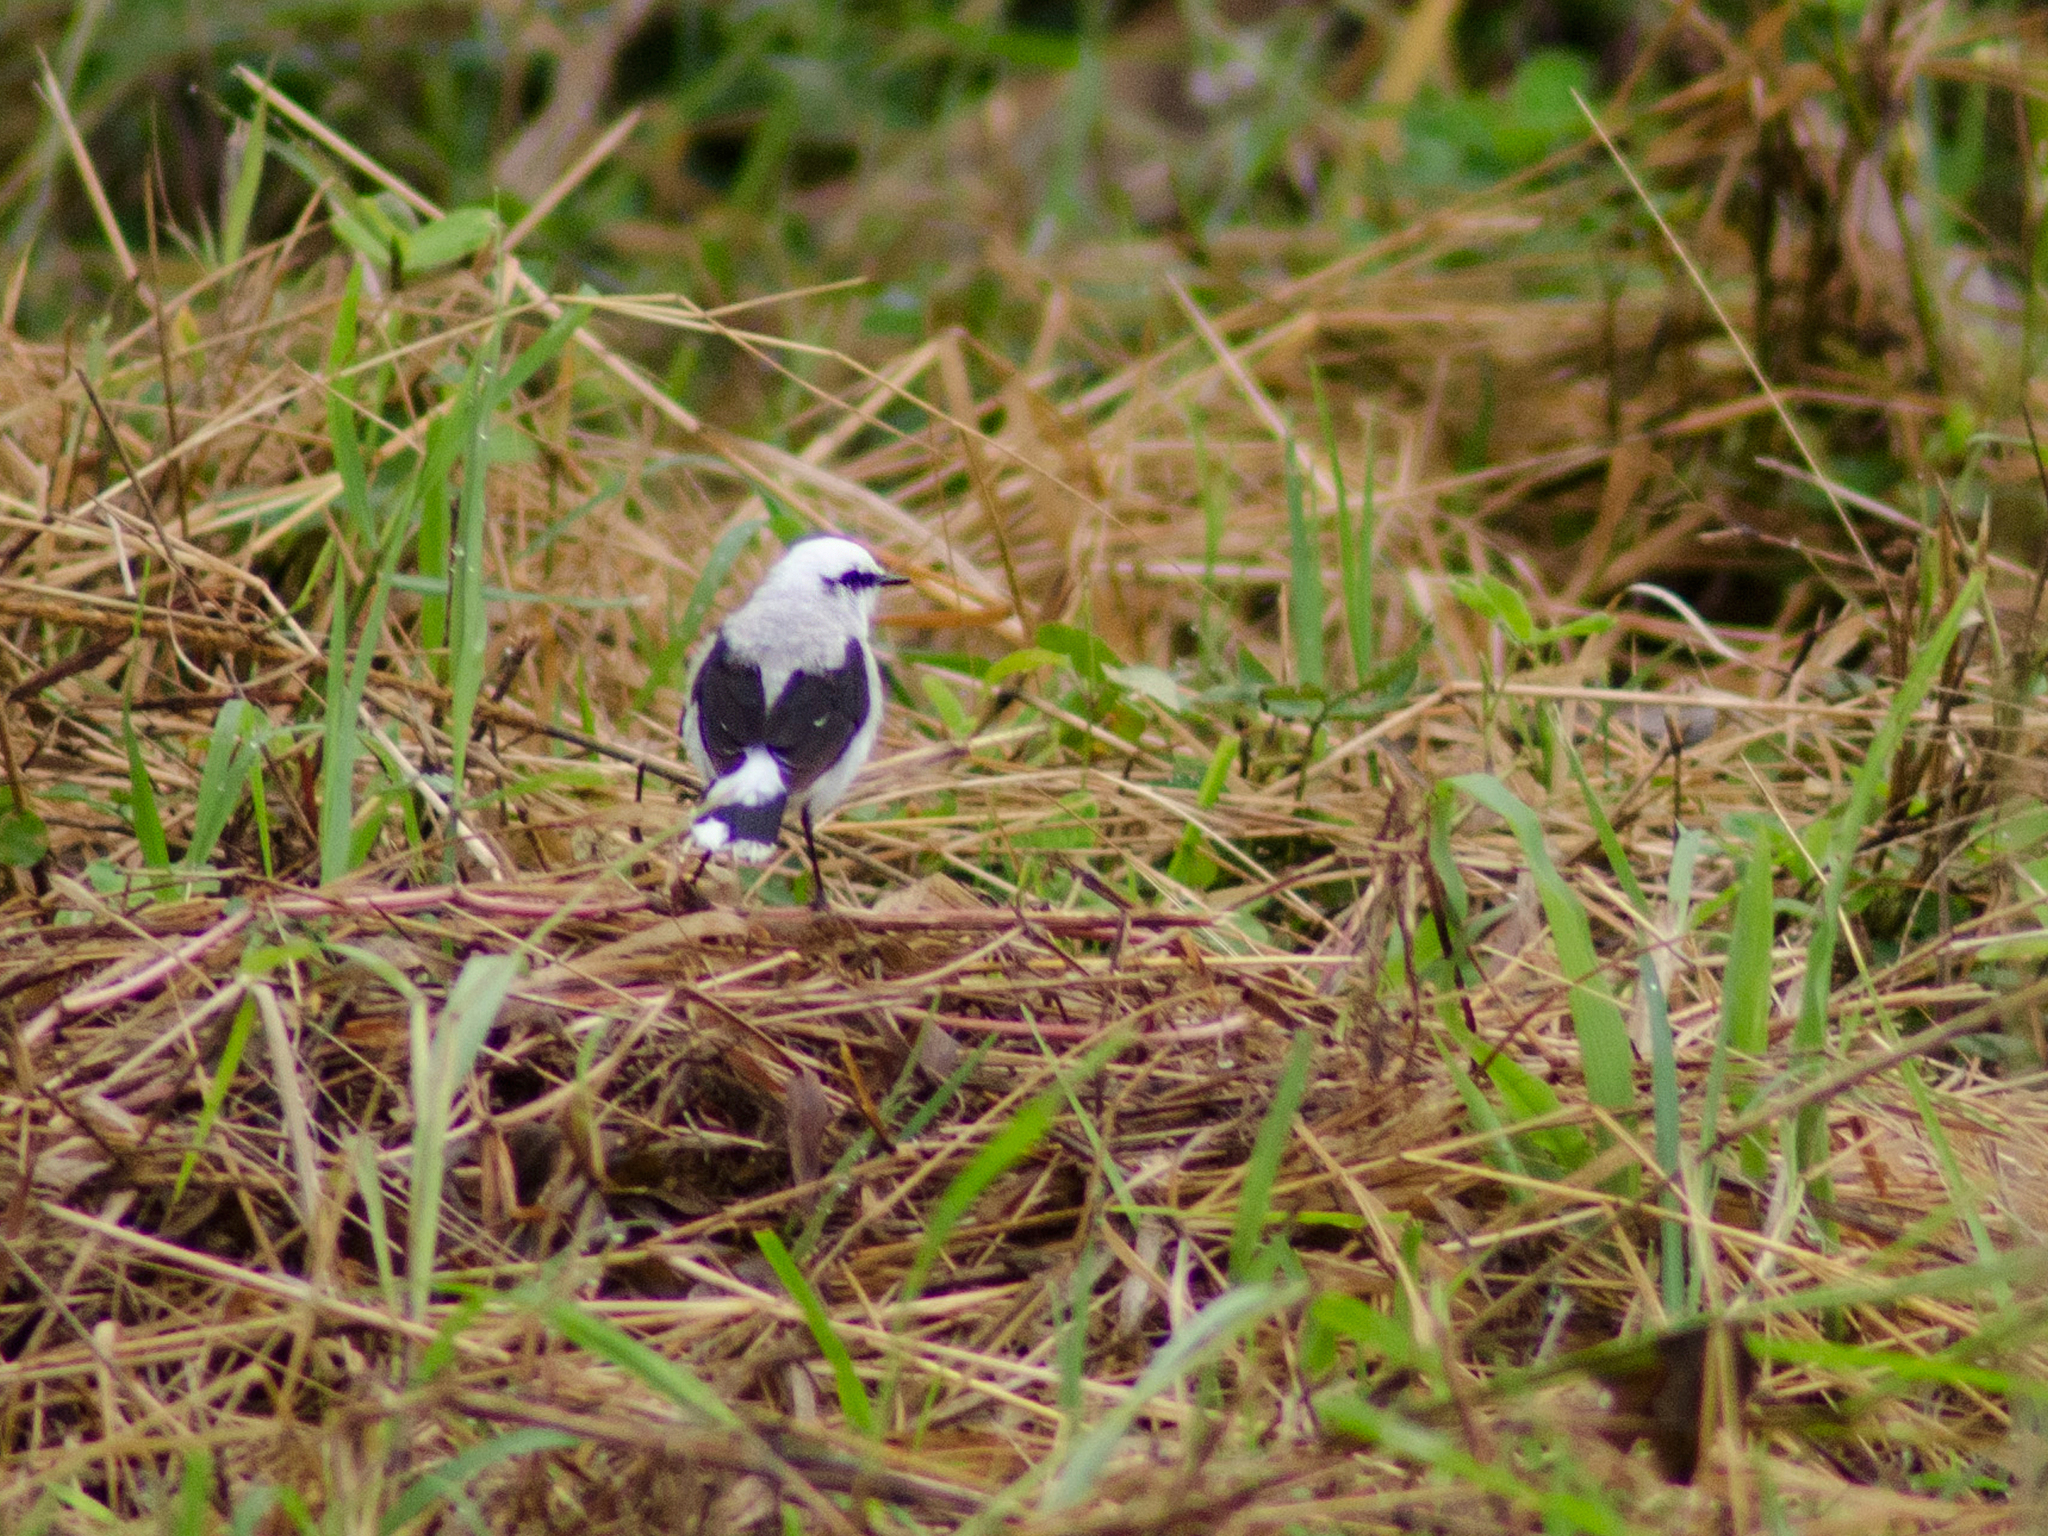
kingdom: Animalia
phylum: Chordata
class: Aves
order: Passeriformes
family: Tyrannidae
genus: Fluvicola
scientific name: Fluvicola nengeta
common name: Masked water tyrant
